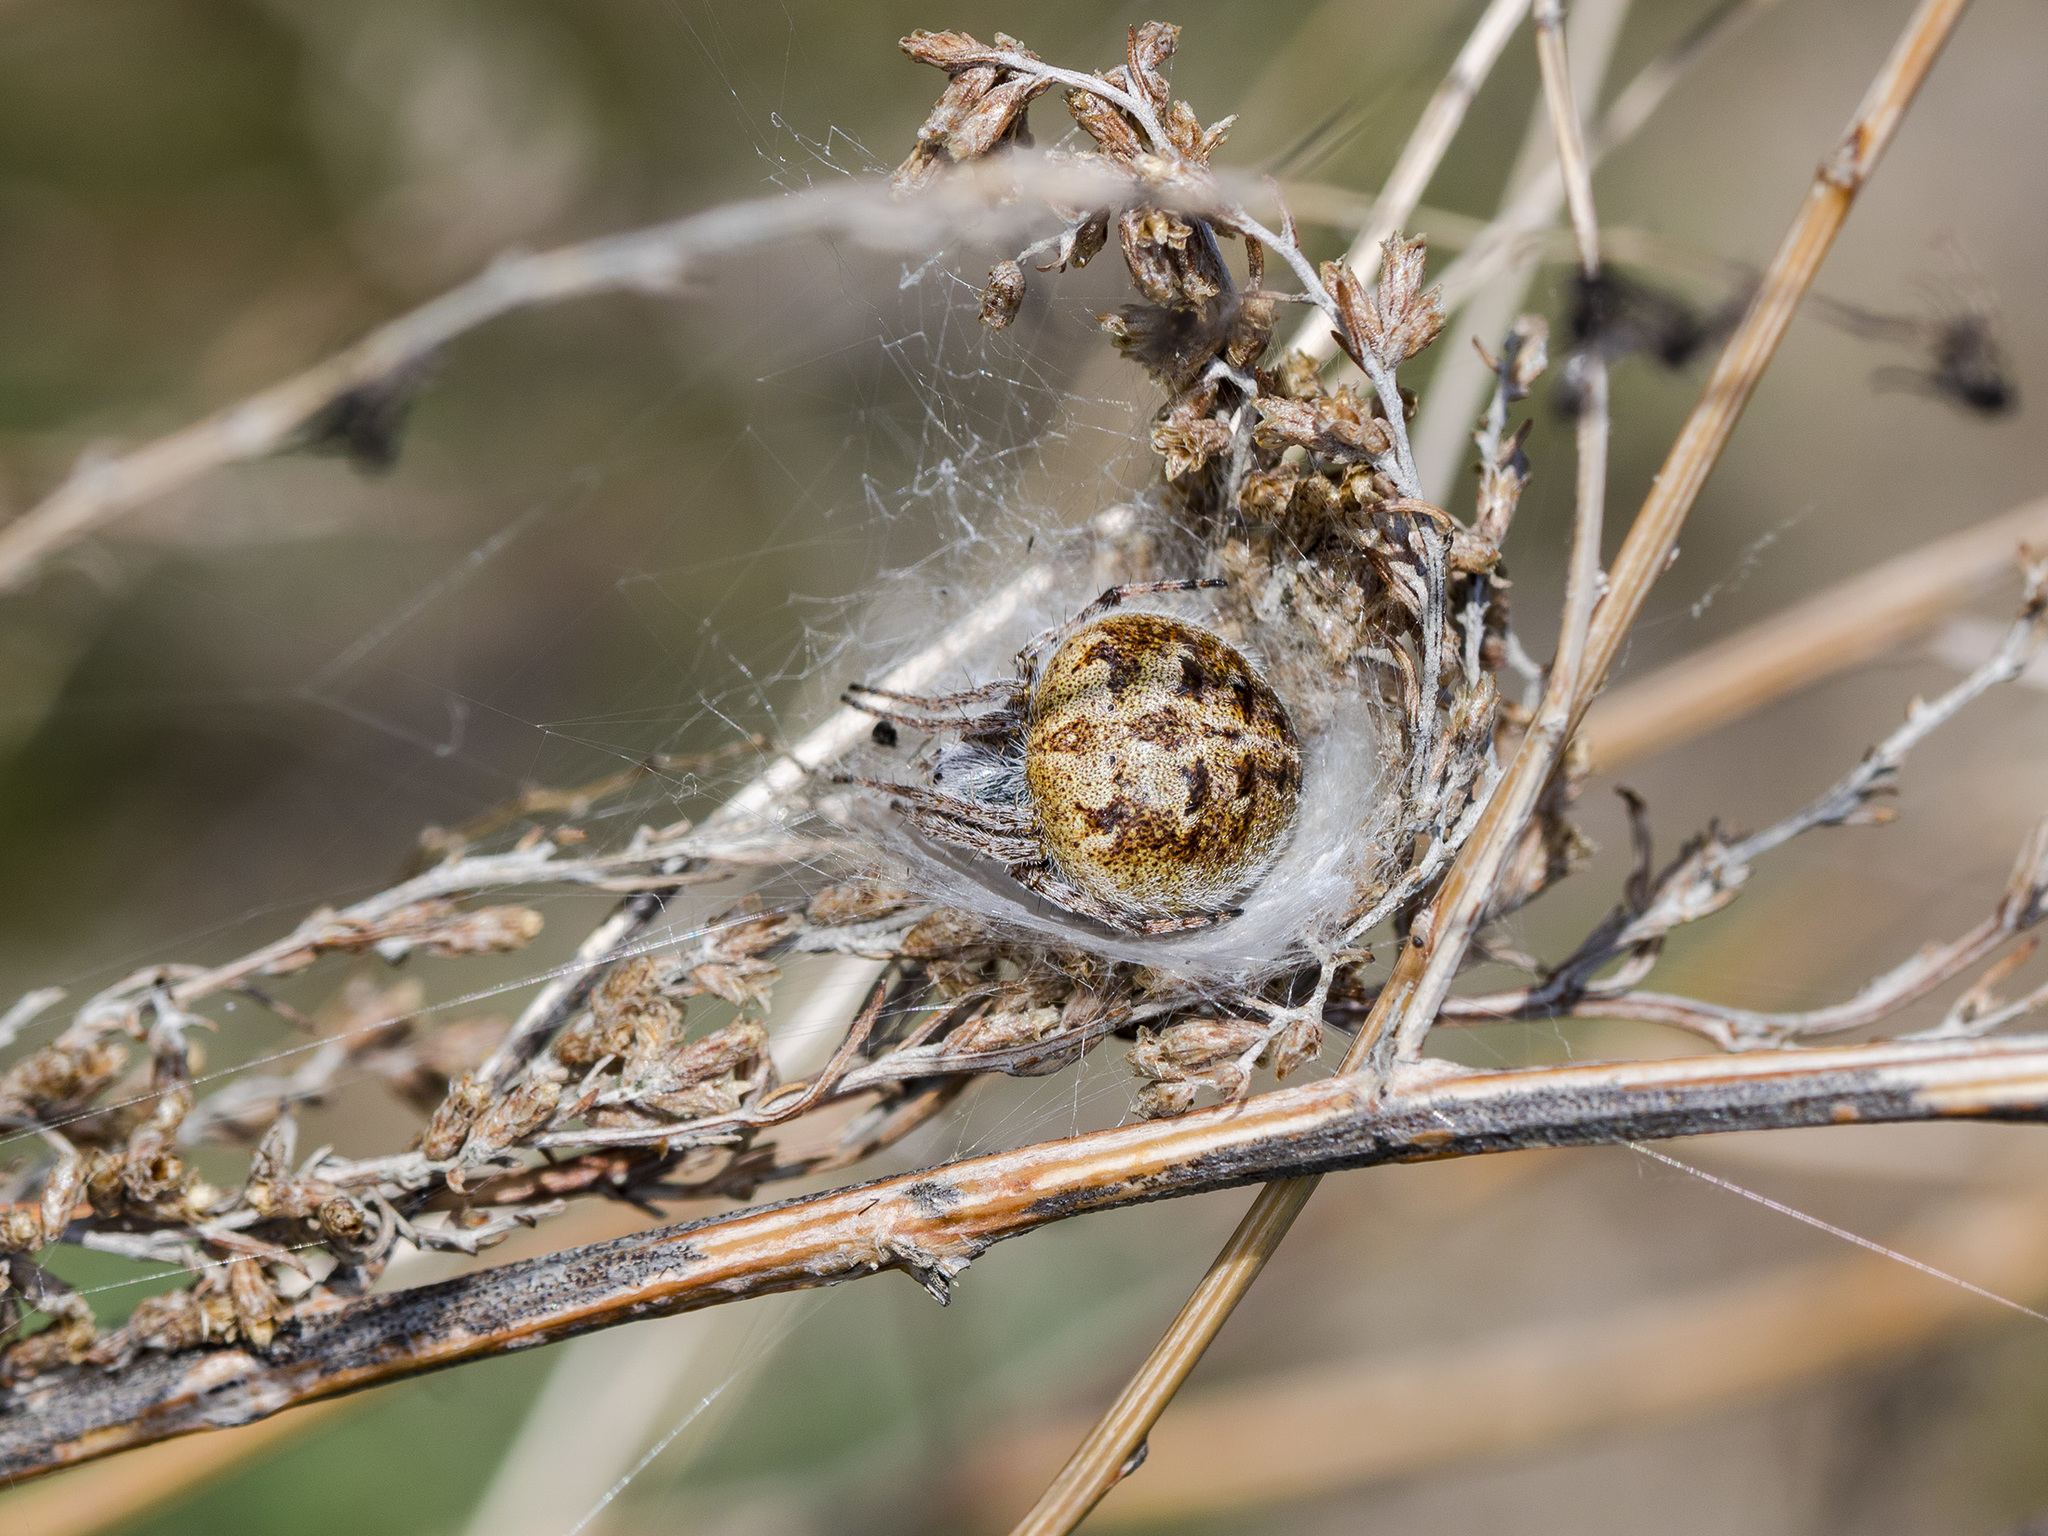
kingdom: Animalia
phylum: Arthropoda
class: Arachnida
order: Araneae
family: Araneidae
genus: Agalenatea
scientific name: Agalenatea redii
